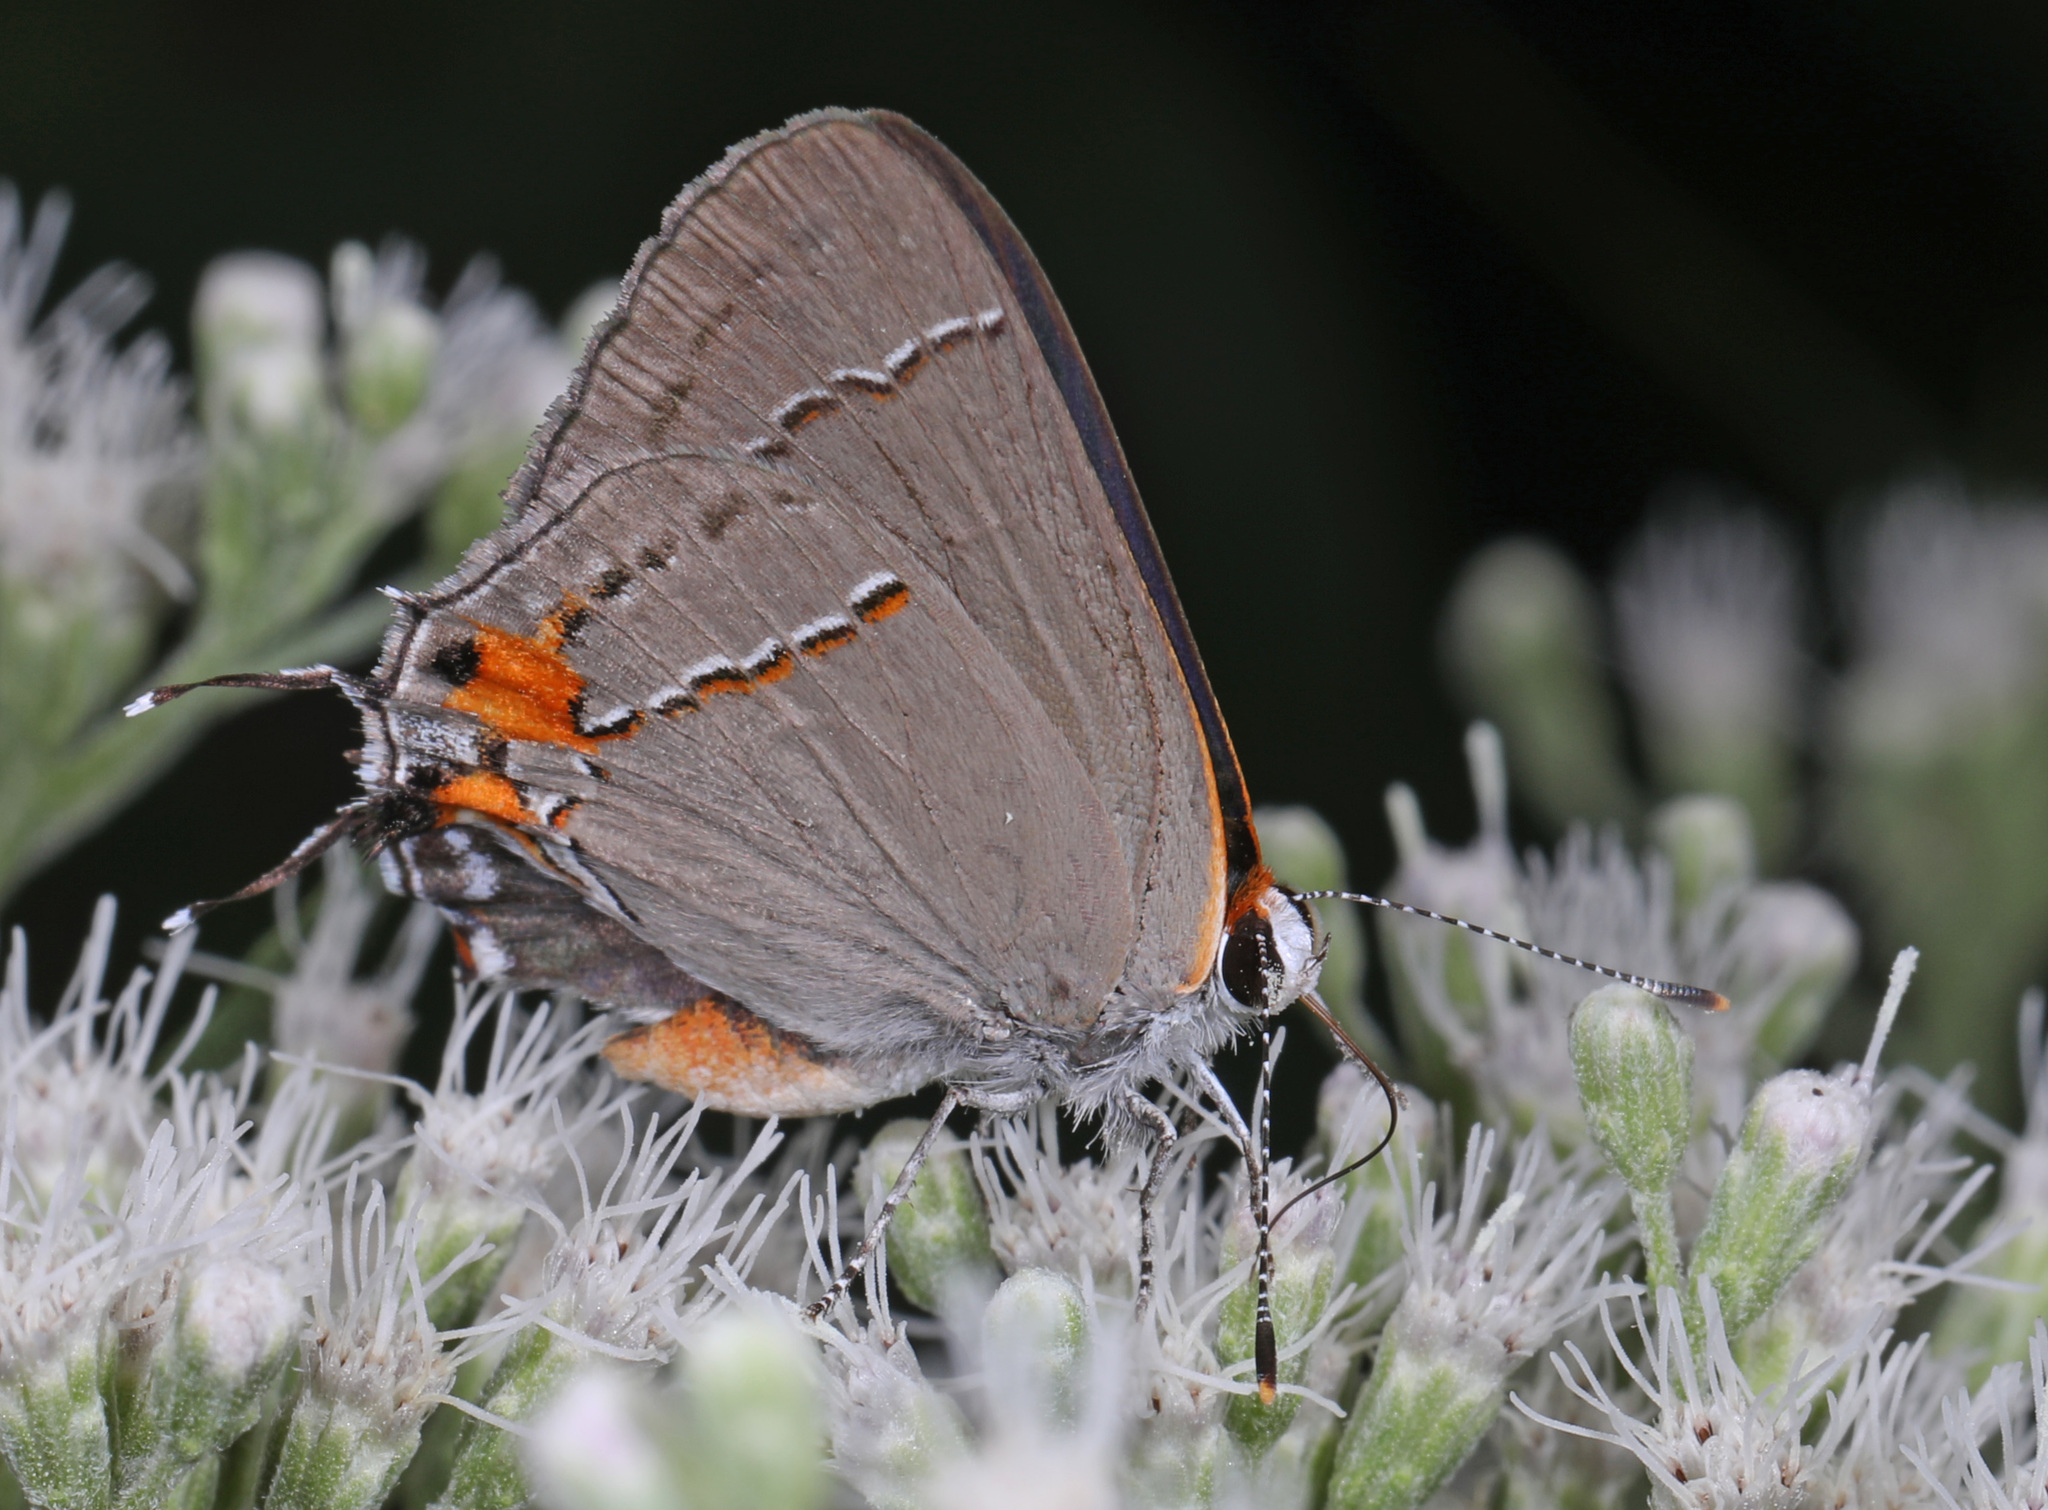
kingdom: Animalia
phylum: Arthropoda
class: Insecta
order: Lepidoptera
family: Lycaenidae
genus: Strymon
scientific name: Strymon melinus
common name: Gray hairstreak
